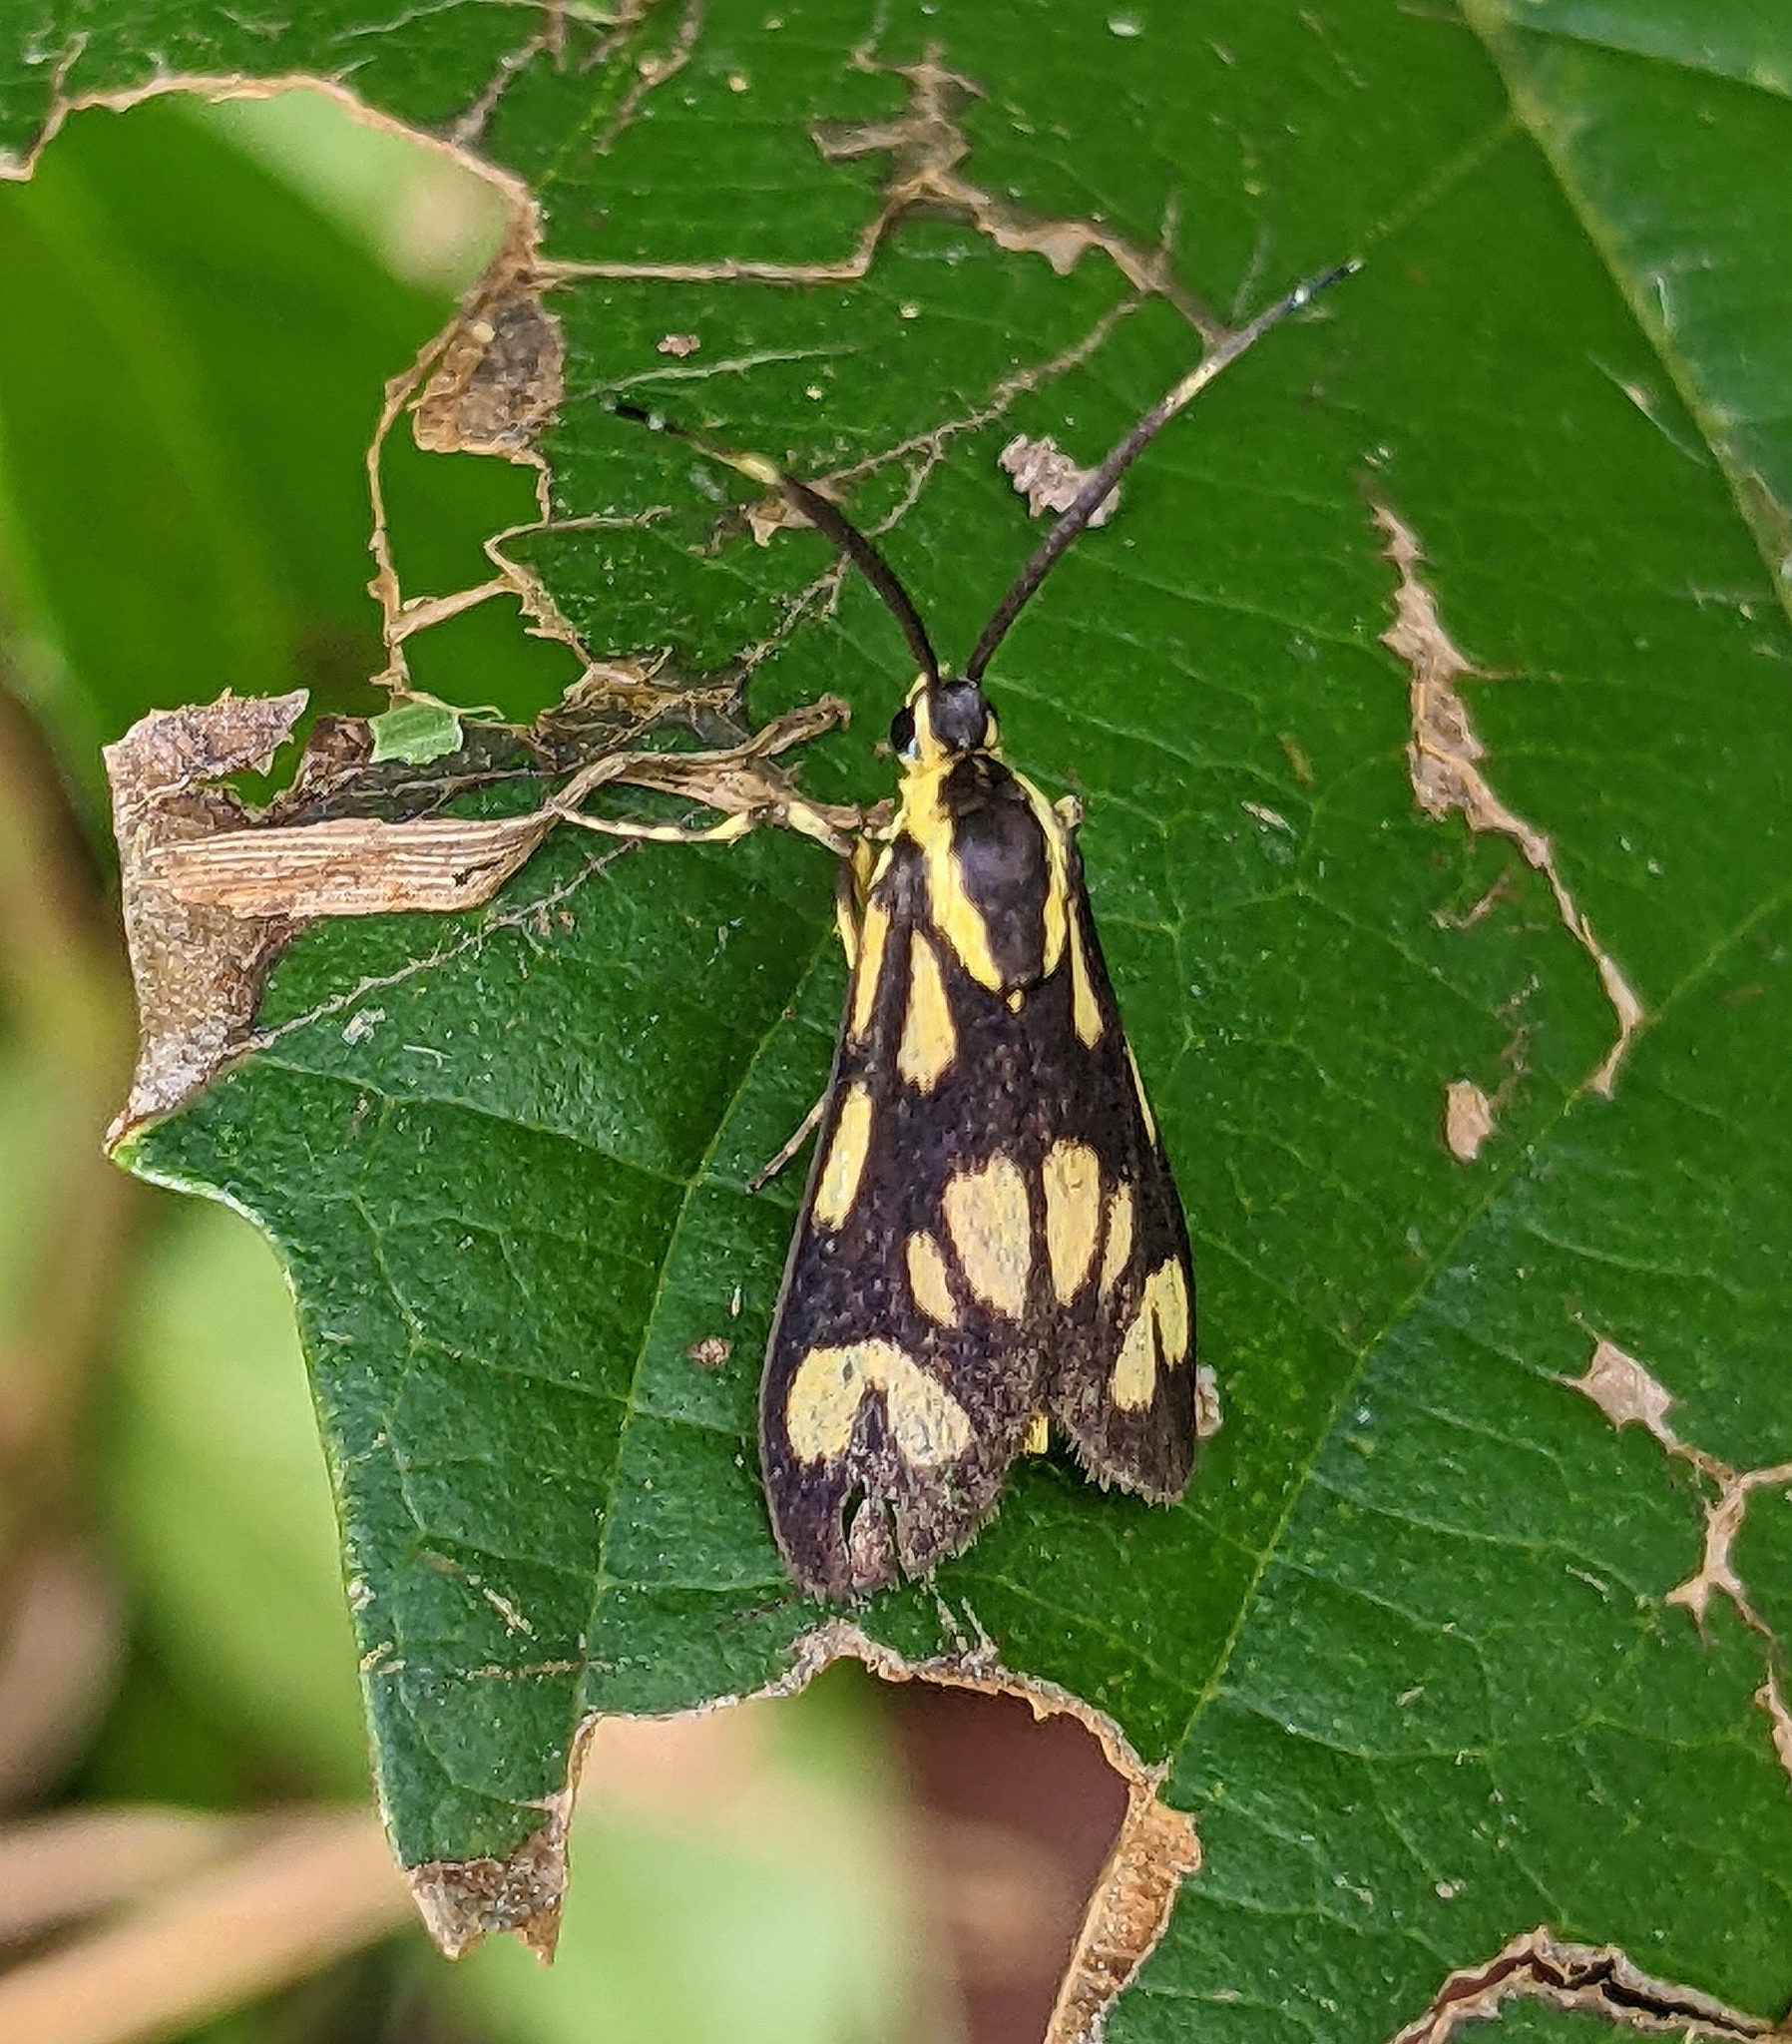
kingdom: Animalia
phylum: Arthropoda
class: Insecta
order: Lepidoptera
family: Zygaenidae
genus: Artona
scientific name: Artona walkeri
